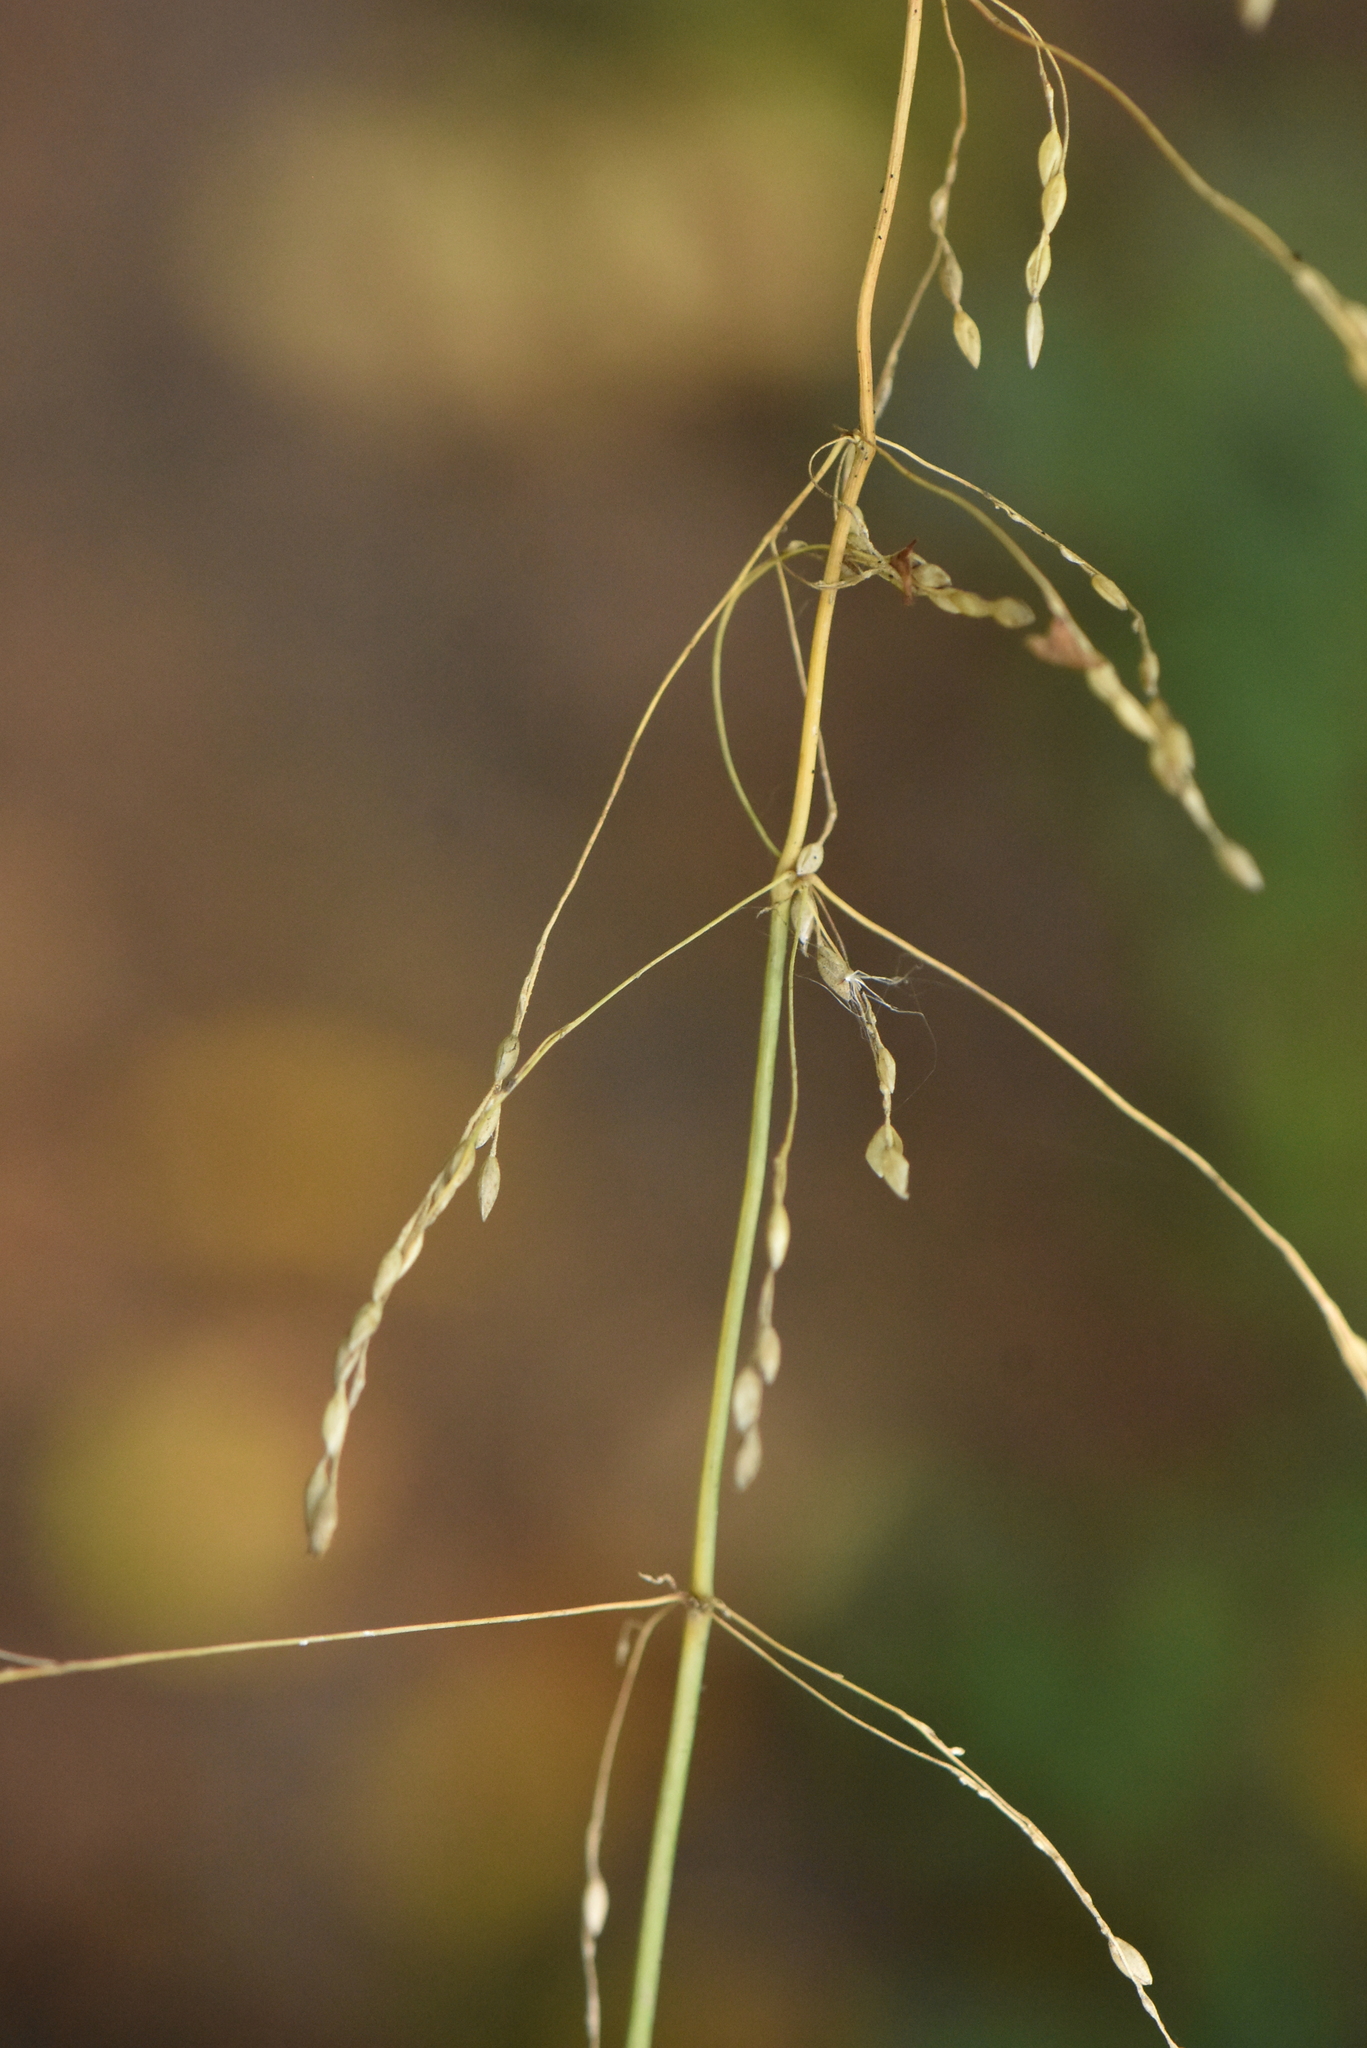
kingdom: Plantae
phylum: Tracheophyta
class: Liliopsida
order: Poales
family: Poaceae
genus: Milium
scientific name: Milium effusum
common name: Wood millet
